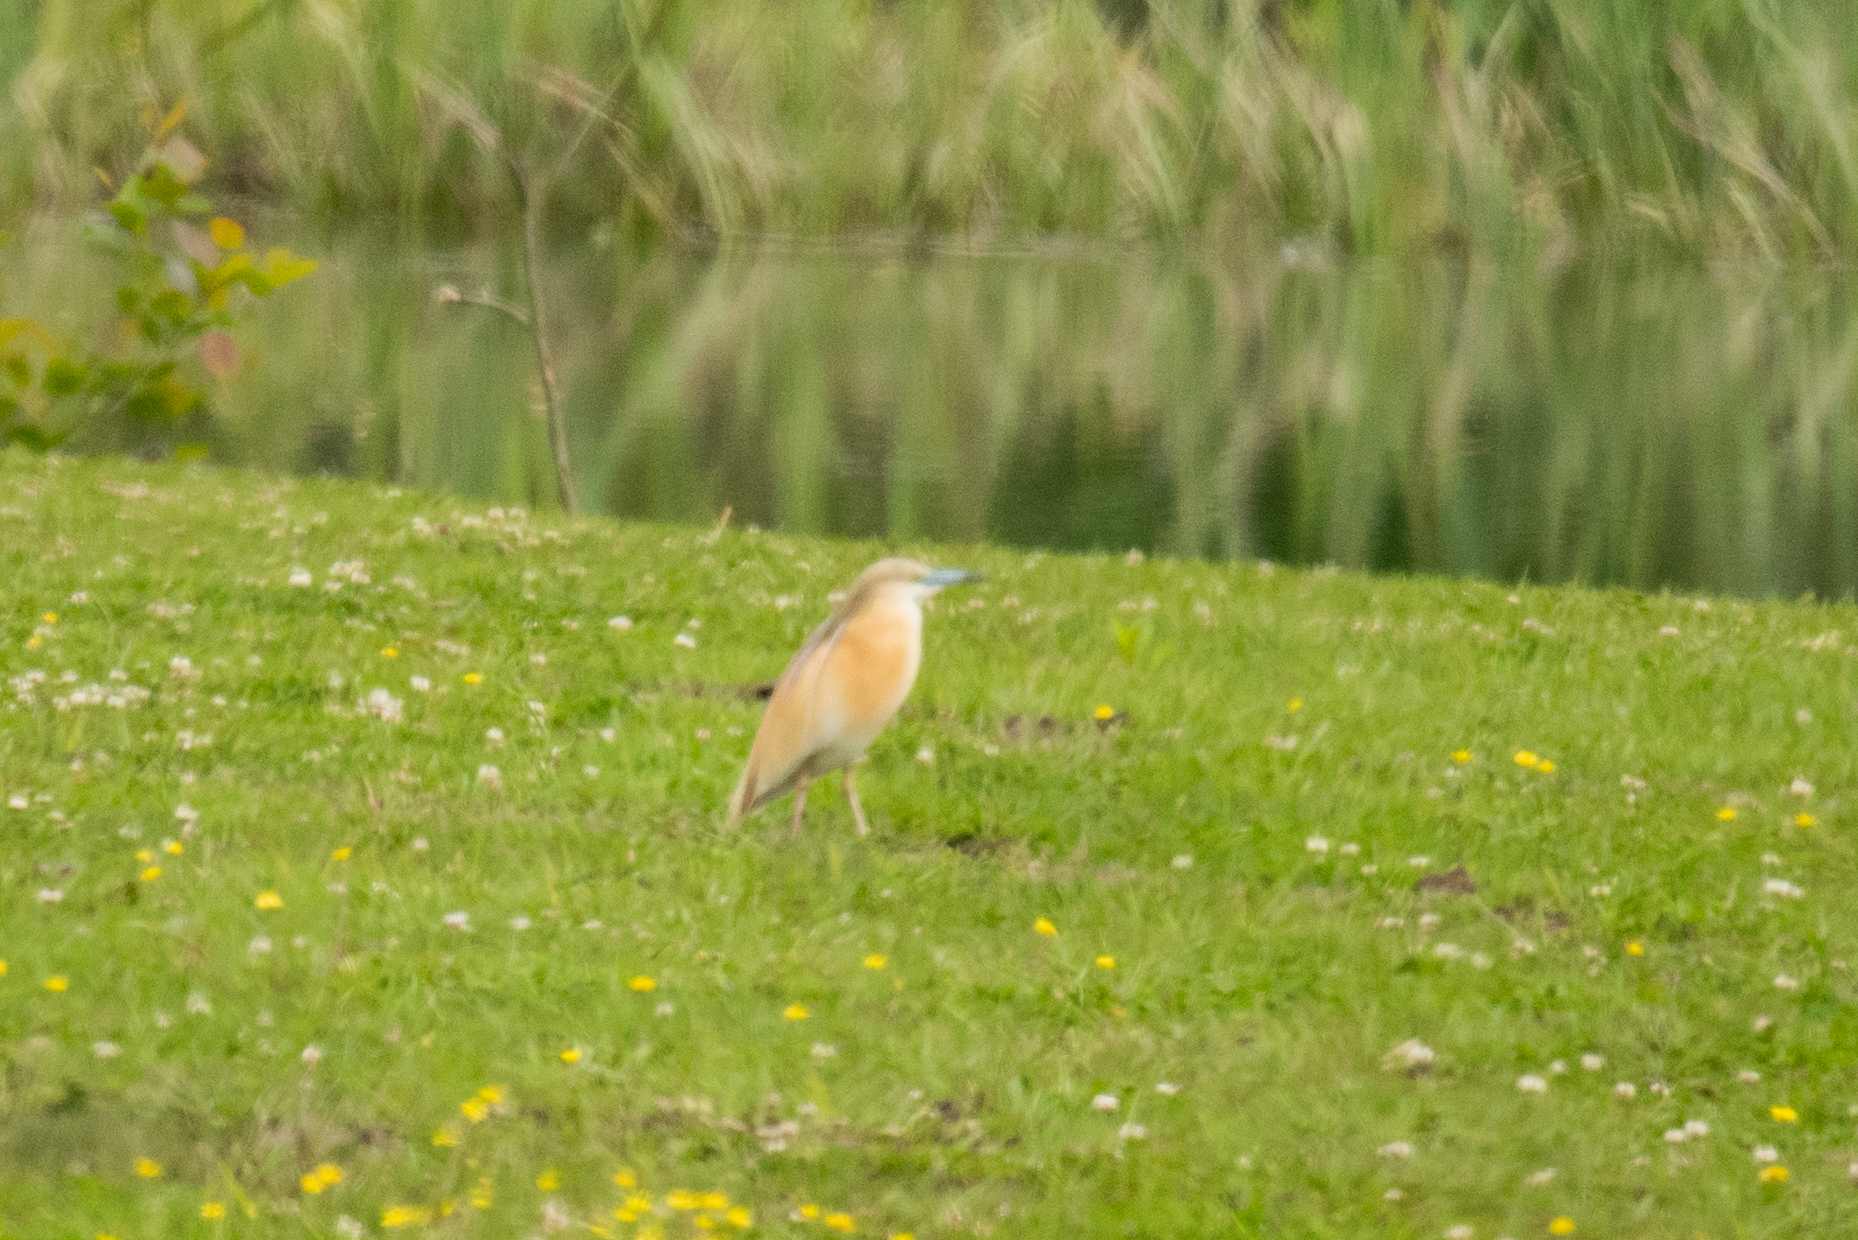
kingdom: Animalia
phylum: Chordata
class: Aves
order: Pelecaniformes
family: Ardeidae
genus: Ardeola
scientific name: Ardeola ralloides
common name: Squacco heron
